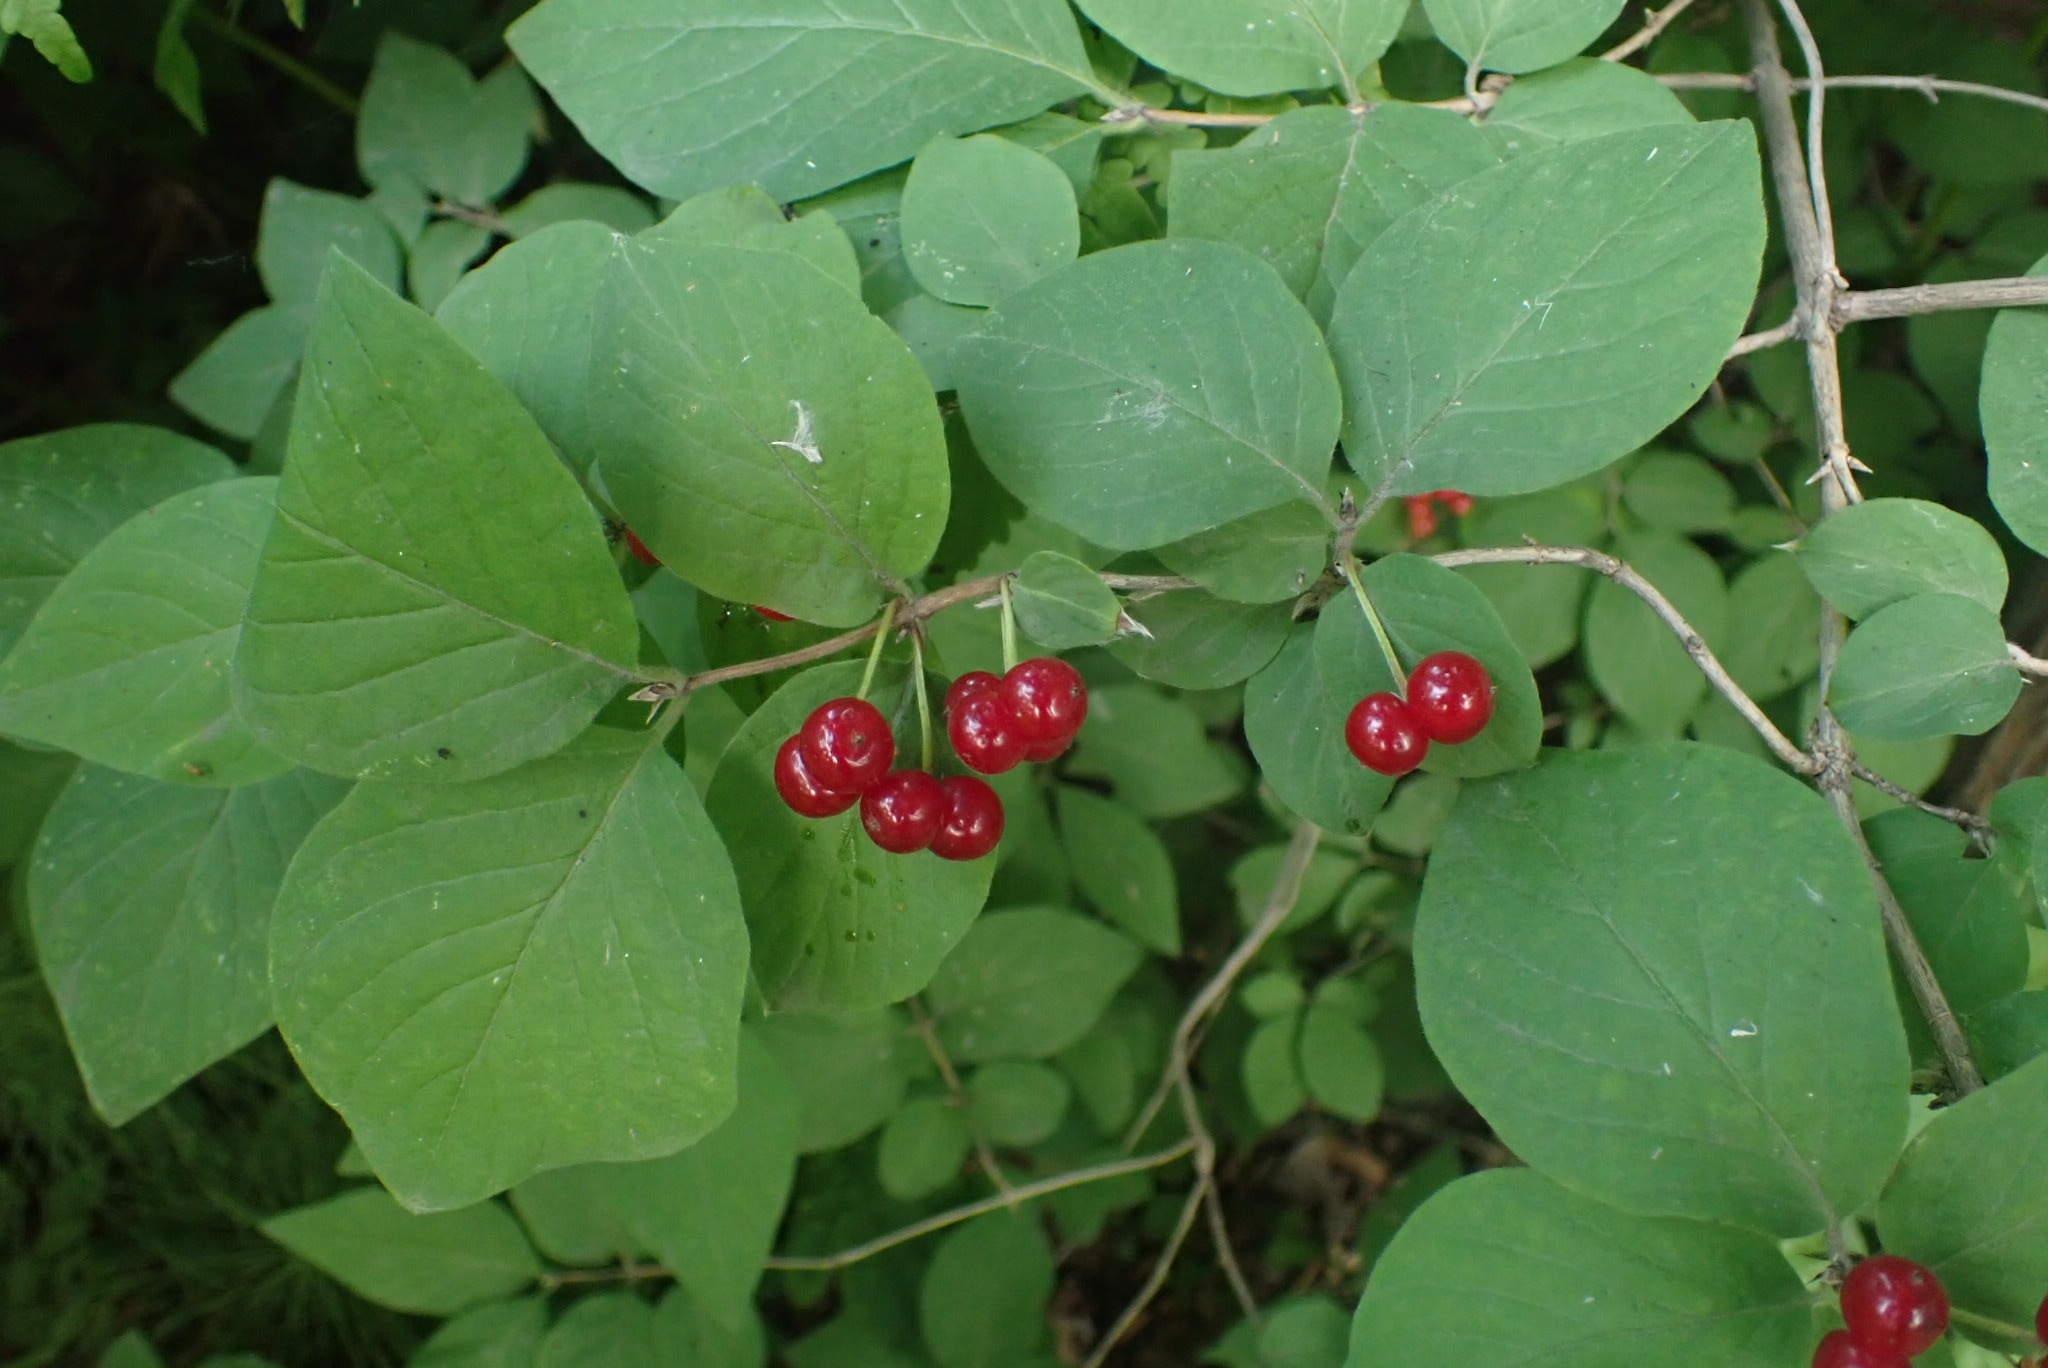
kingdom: Plantae
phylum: Tracheophyta
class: Magnoliopsida
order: Dipsacales
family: Caprifoliaceae
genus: Lonicera
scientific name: Lonicera xylosteum
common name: Fly honeysuckle
